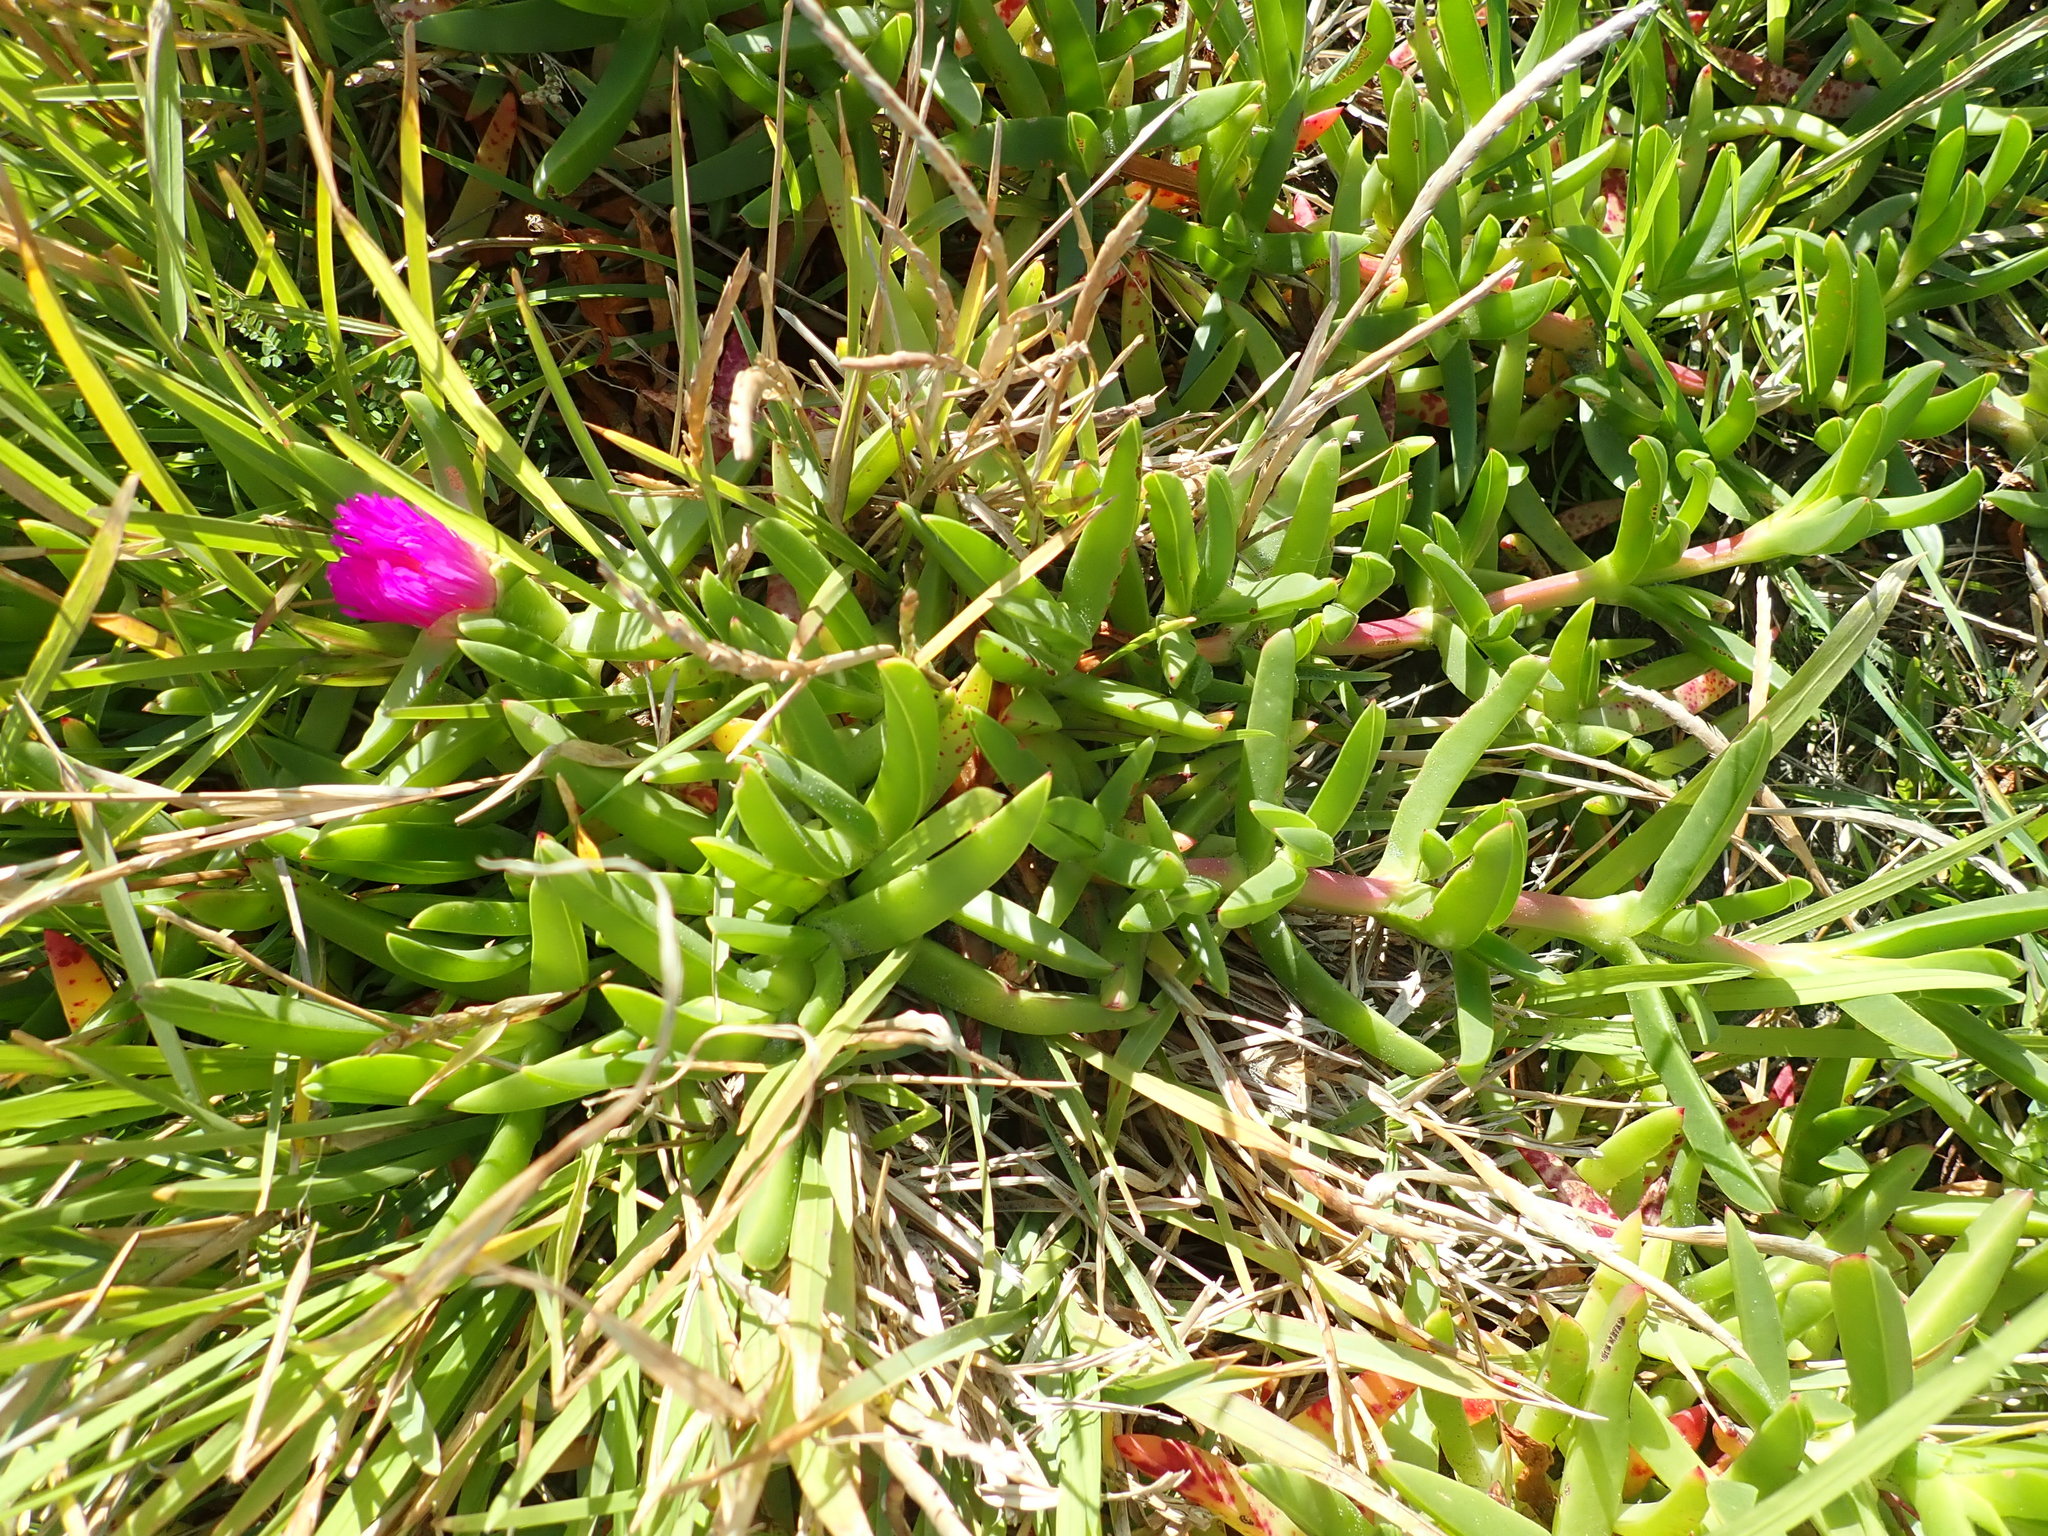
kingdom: Plantae
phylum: Tracheophyta
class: Magnoliopsida
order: Caryophyllales
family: Aizoaceae
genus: Carpobrotus
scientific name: Carpobrotus chilensis
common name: Sea fig
